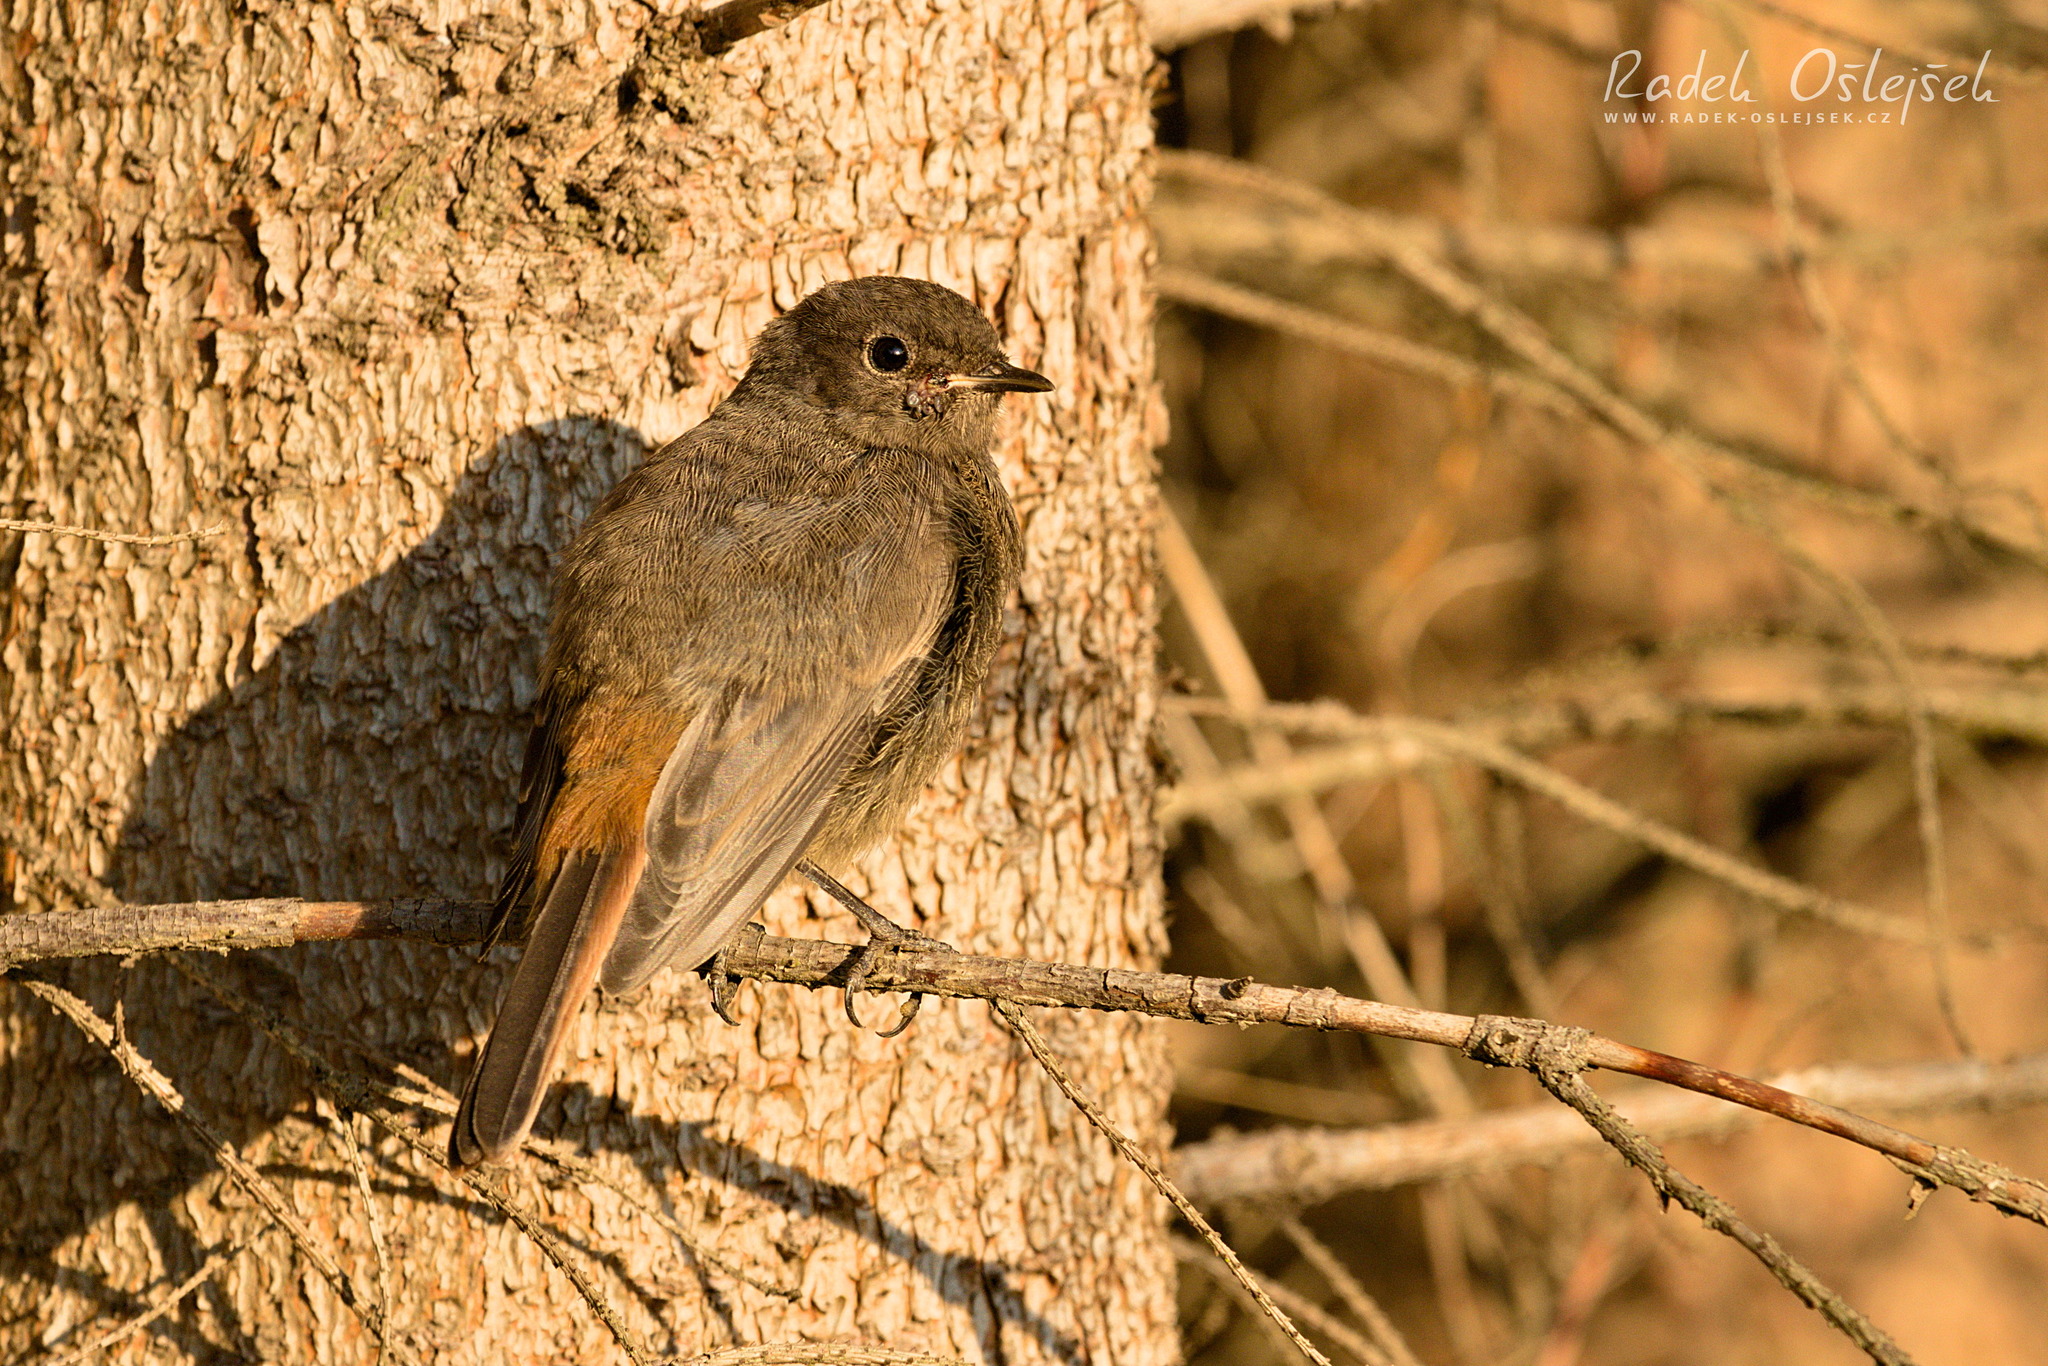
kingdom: Animalia
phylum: Chordata
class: Aves
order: Passeriformes
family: Muscicapidae
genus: Phoenicurus
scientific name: Phoenicurus ochruros
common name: Black redstart
